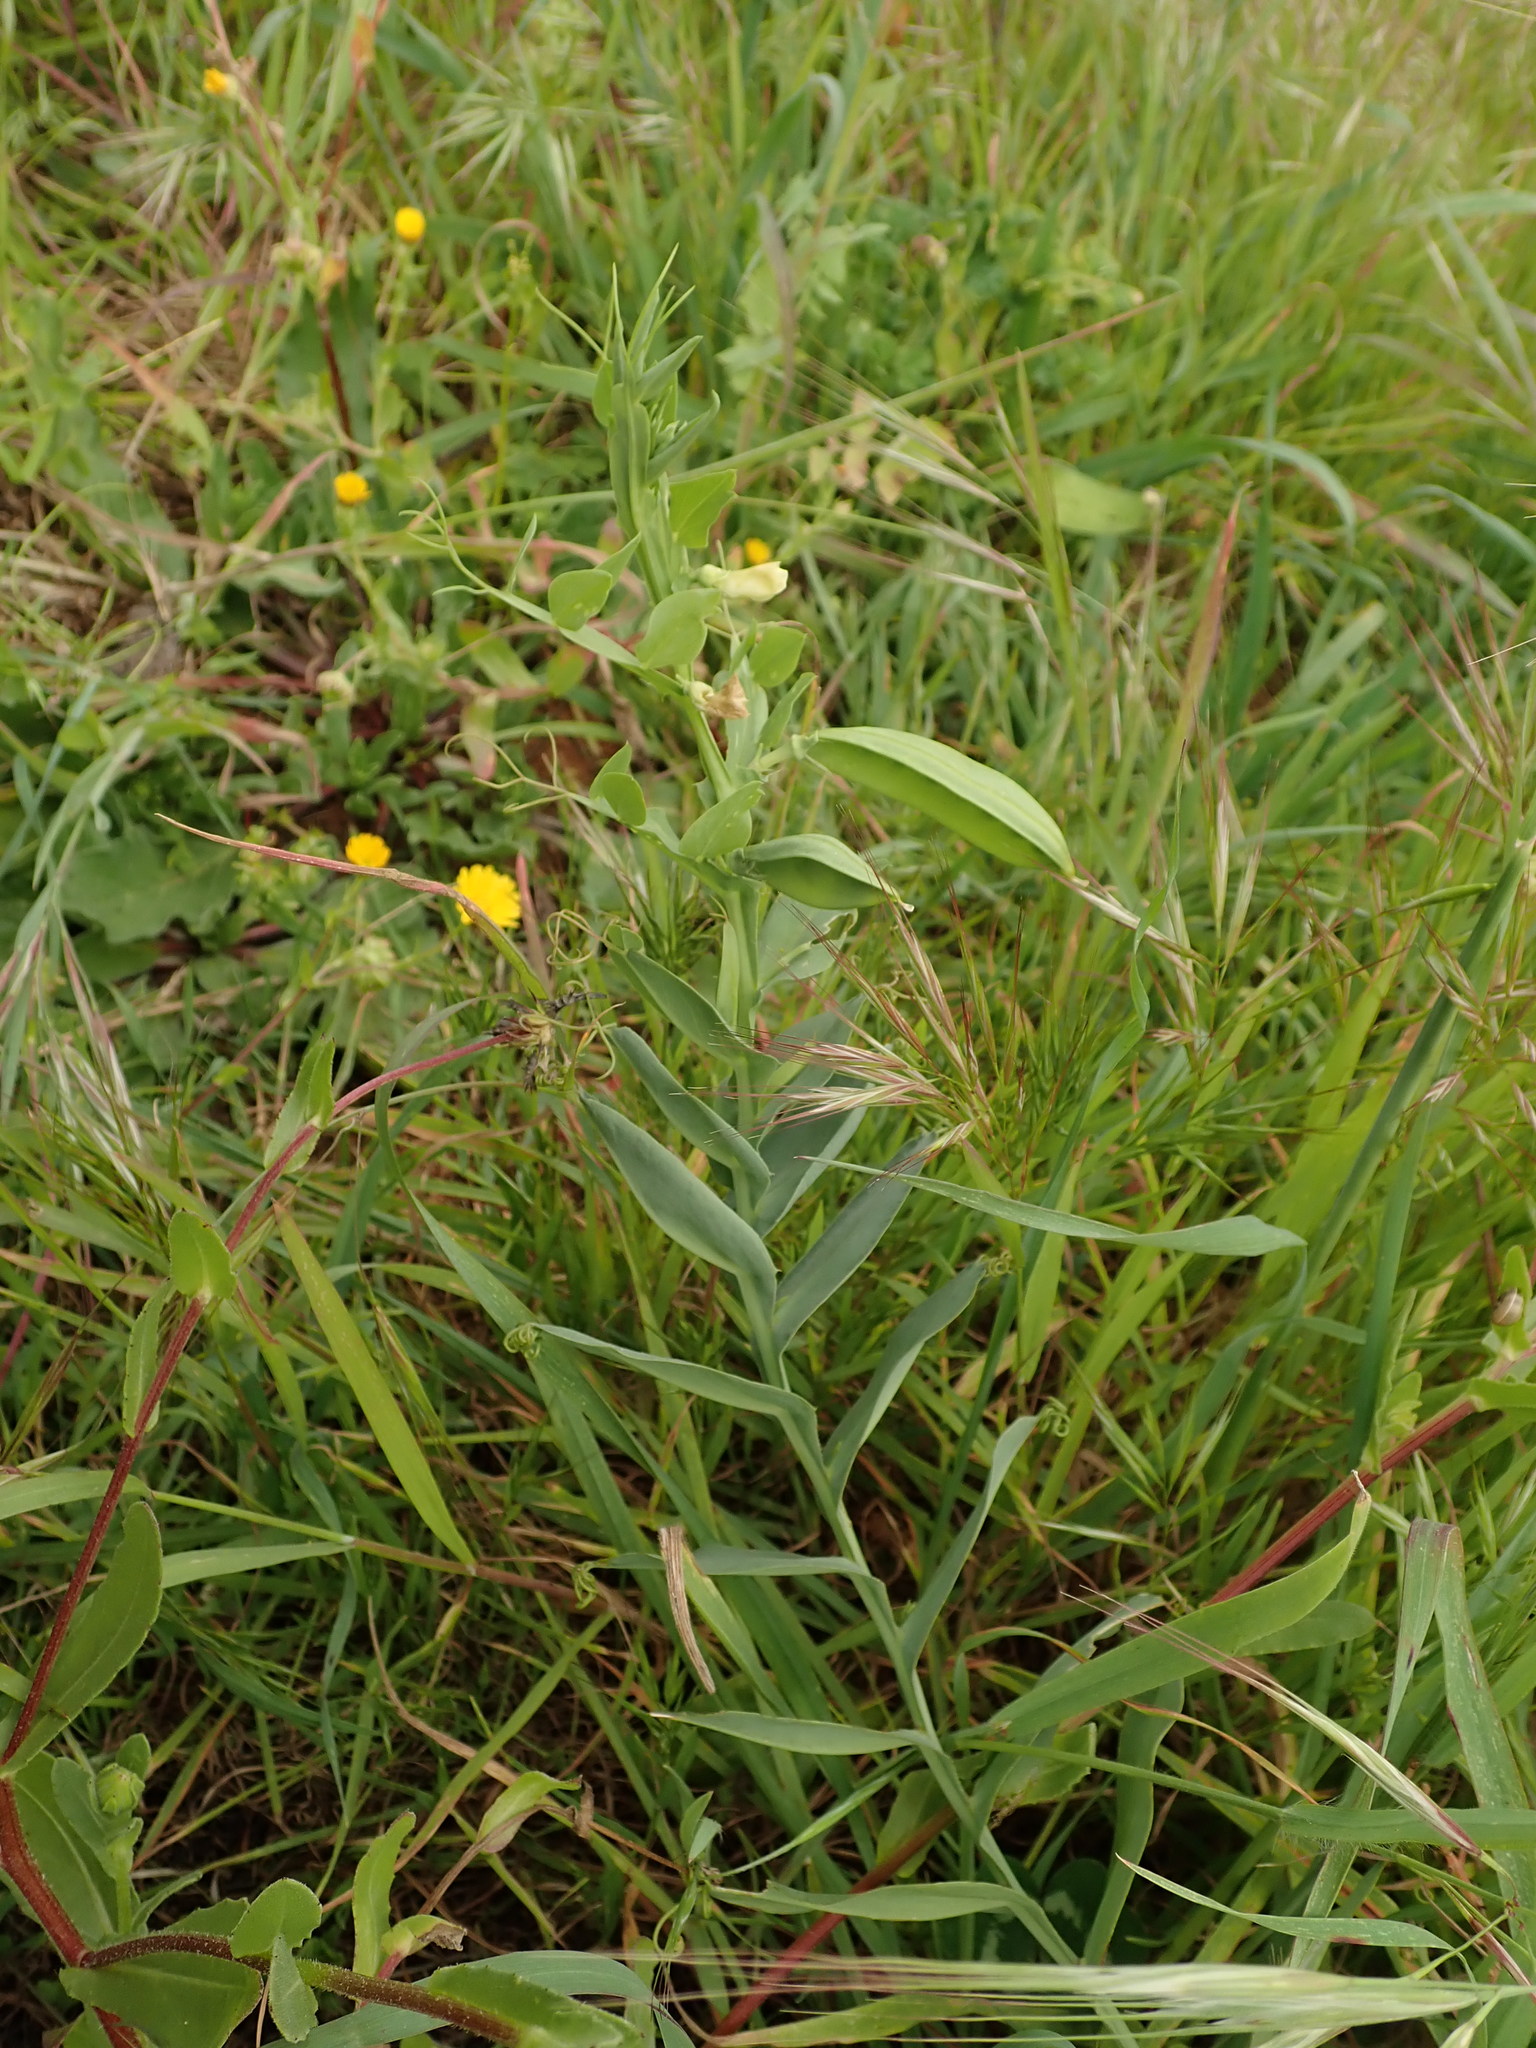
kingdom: Plantae
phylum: Tracheophyta
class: Magnoliopsida
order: Fabales
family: Fabaceae
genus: Lathyrus
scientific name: Lathyrus ochrus
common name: Winged vetchling
